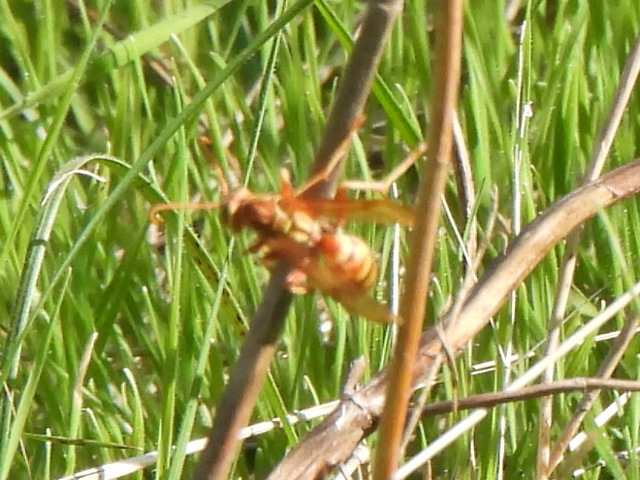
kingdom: Animalia
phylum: Arthropoda
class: Insecta
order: Hymenoptera
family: Eumenidae
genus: Polistes
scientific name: Polistes bellicosus
